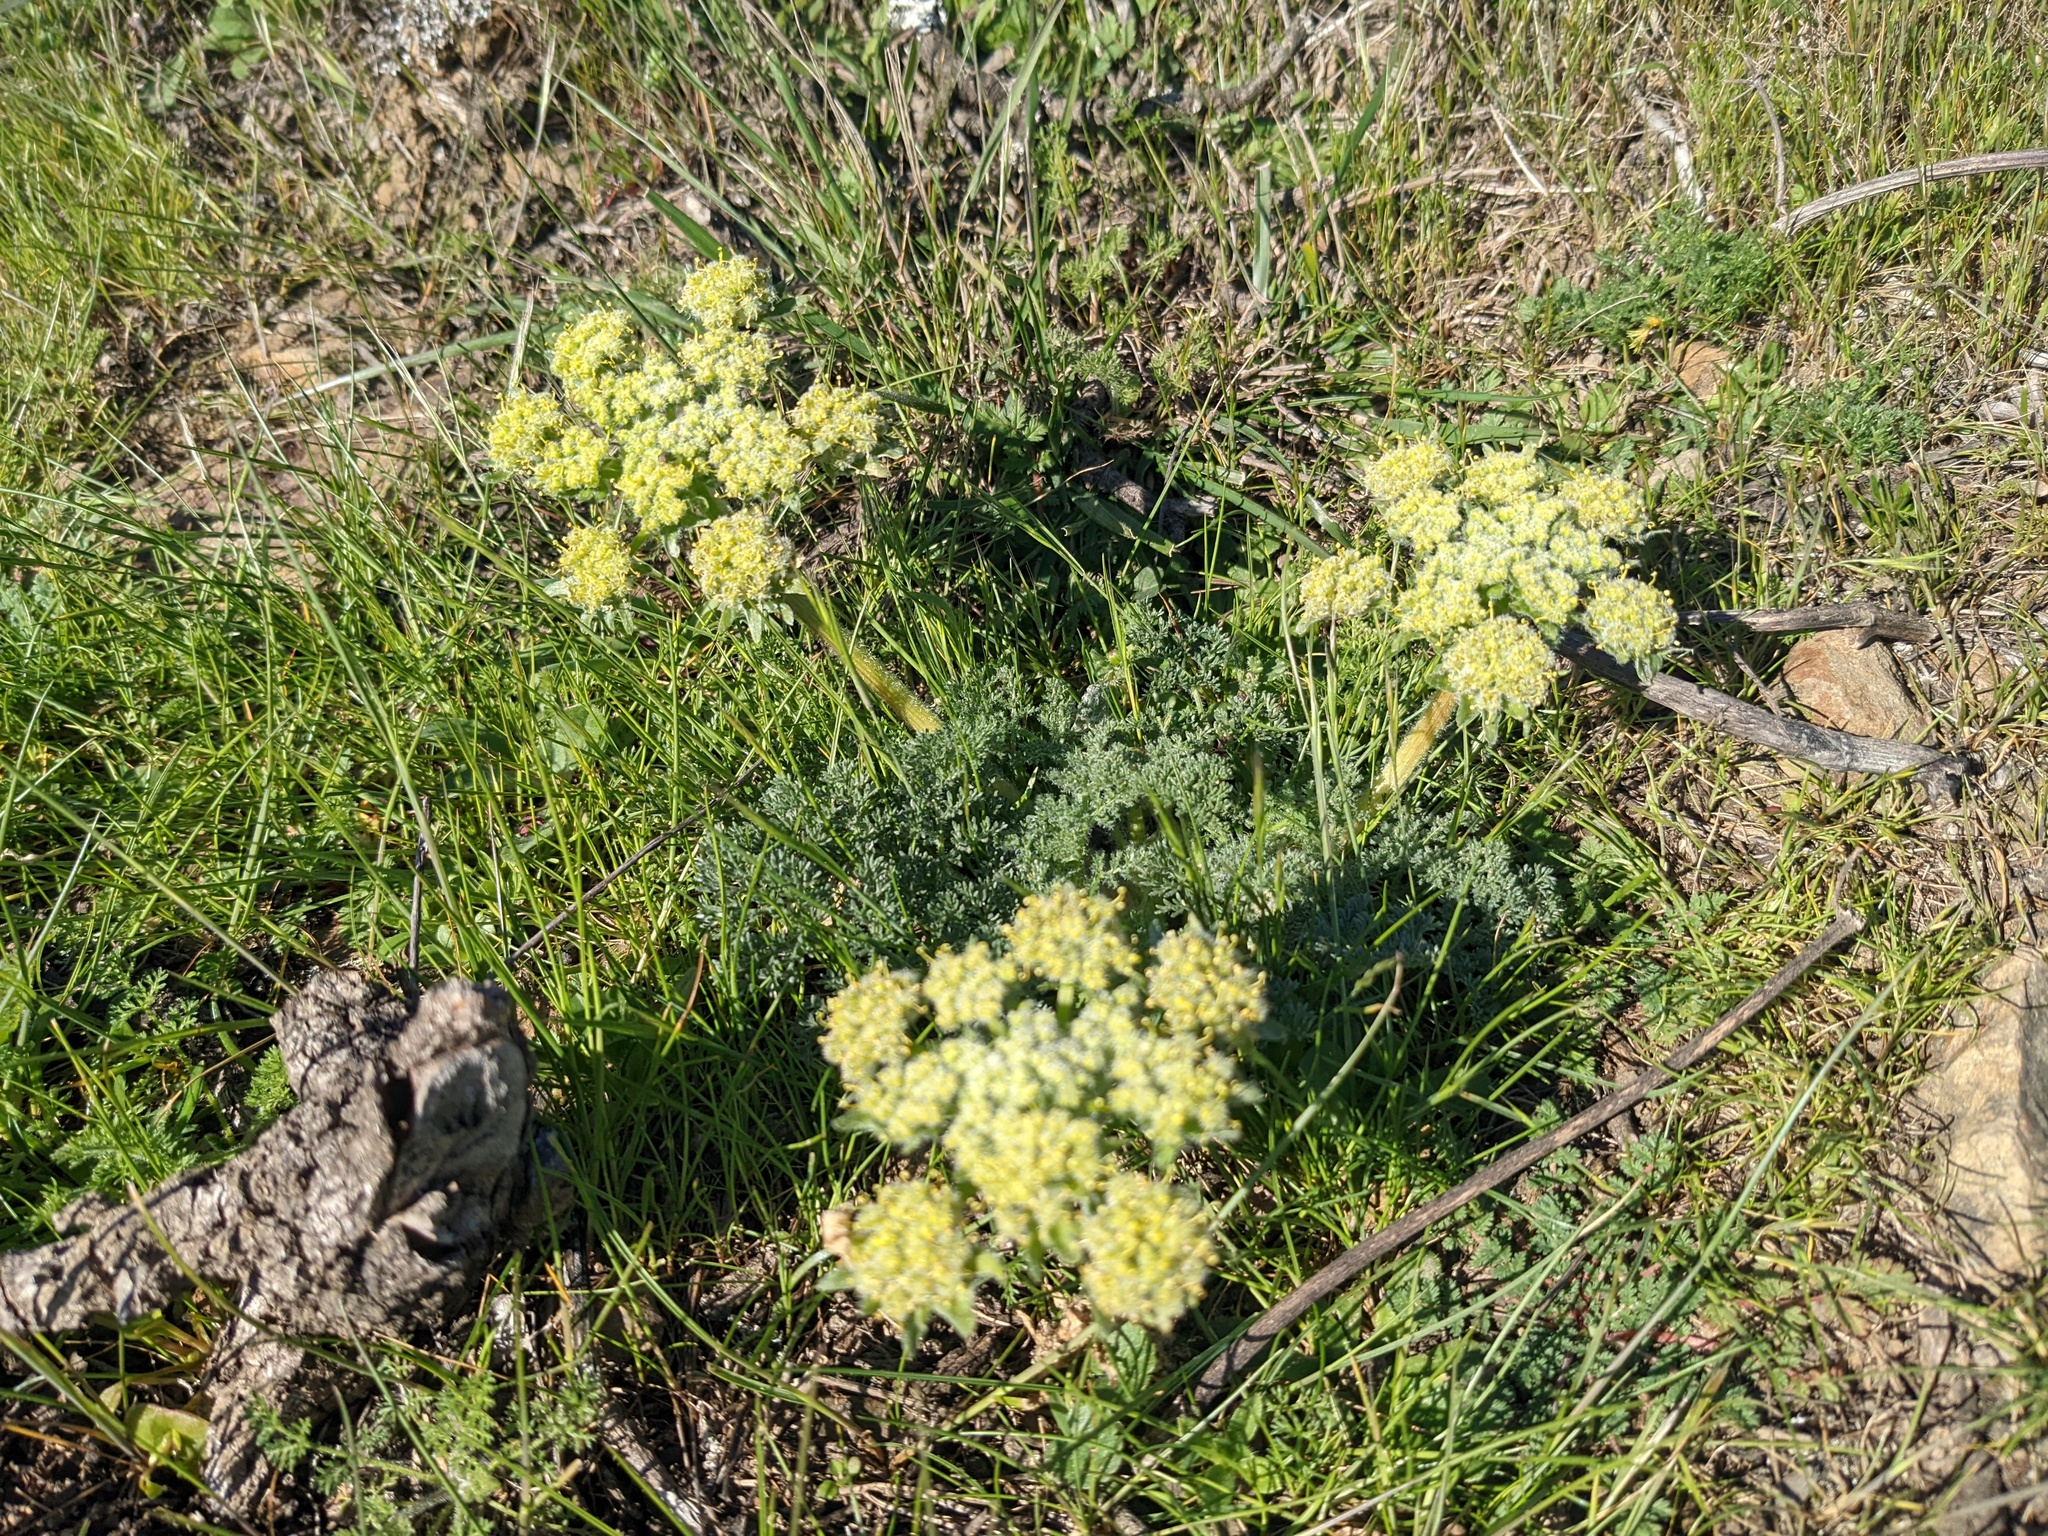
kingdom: Plantae
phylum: Tracheophyta
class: Magnoliopsida
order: Apiales
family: Apiaceae
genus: Lomatium
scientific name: Lomatium utriculatum
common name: Fine-leaf desert-parsley
